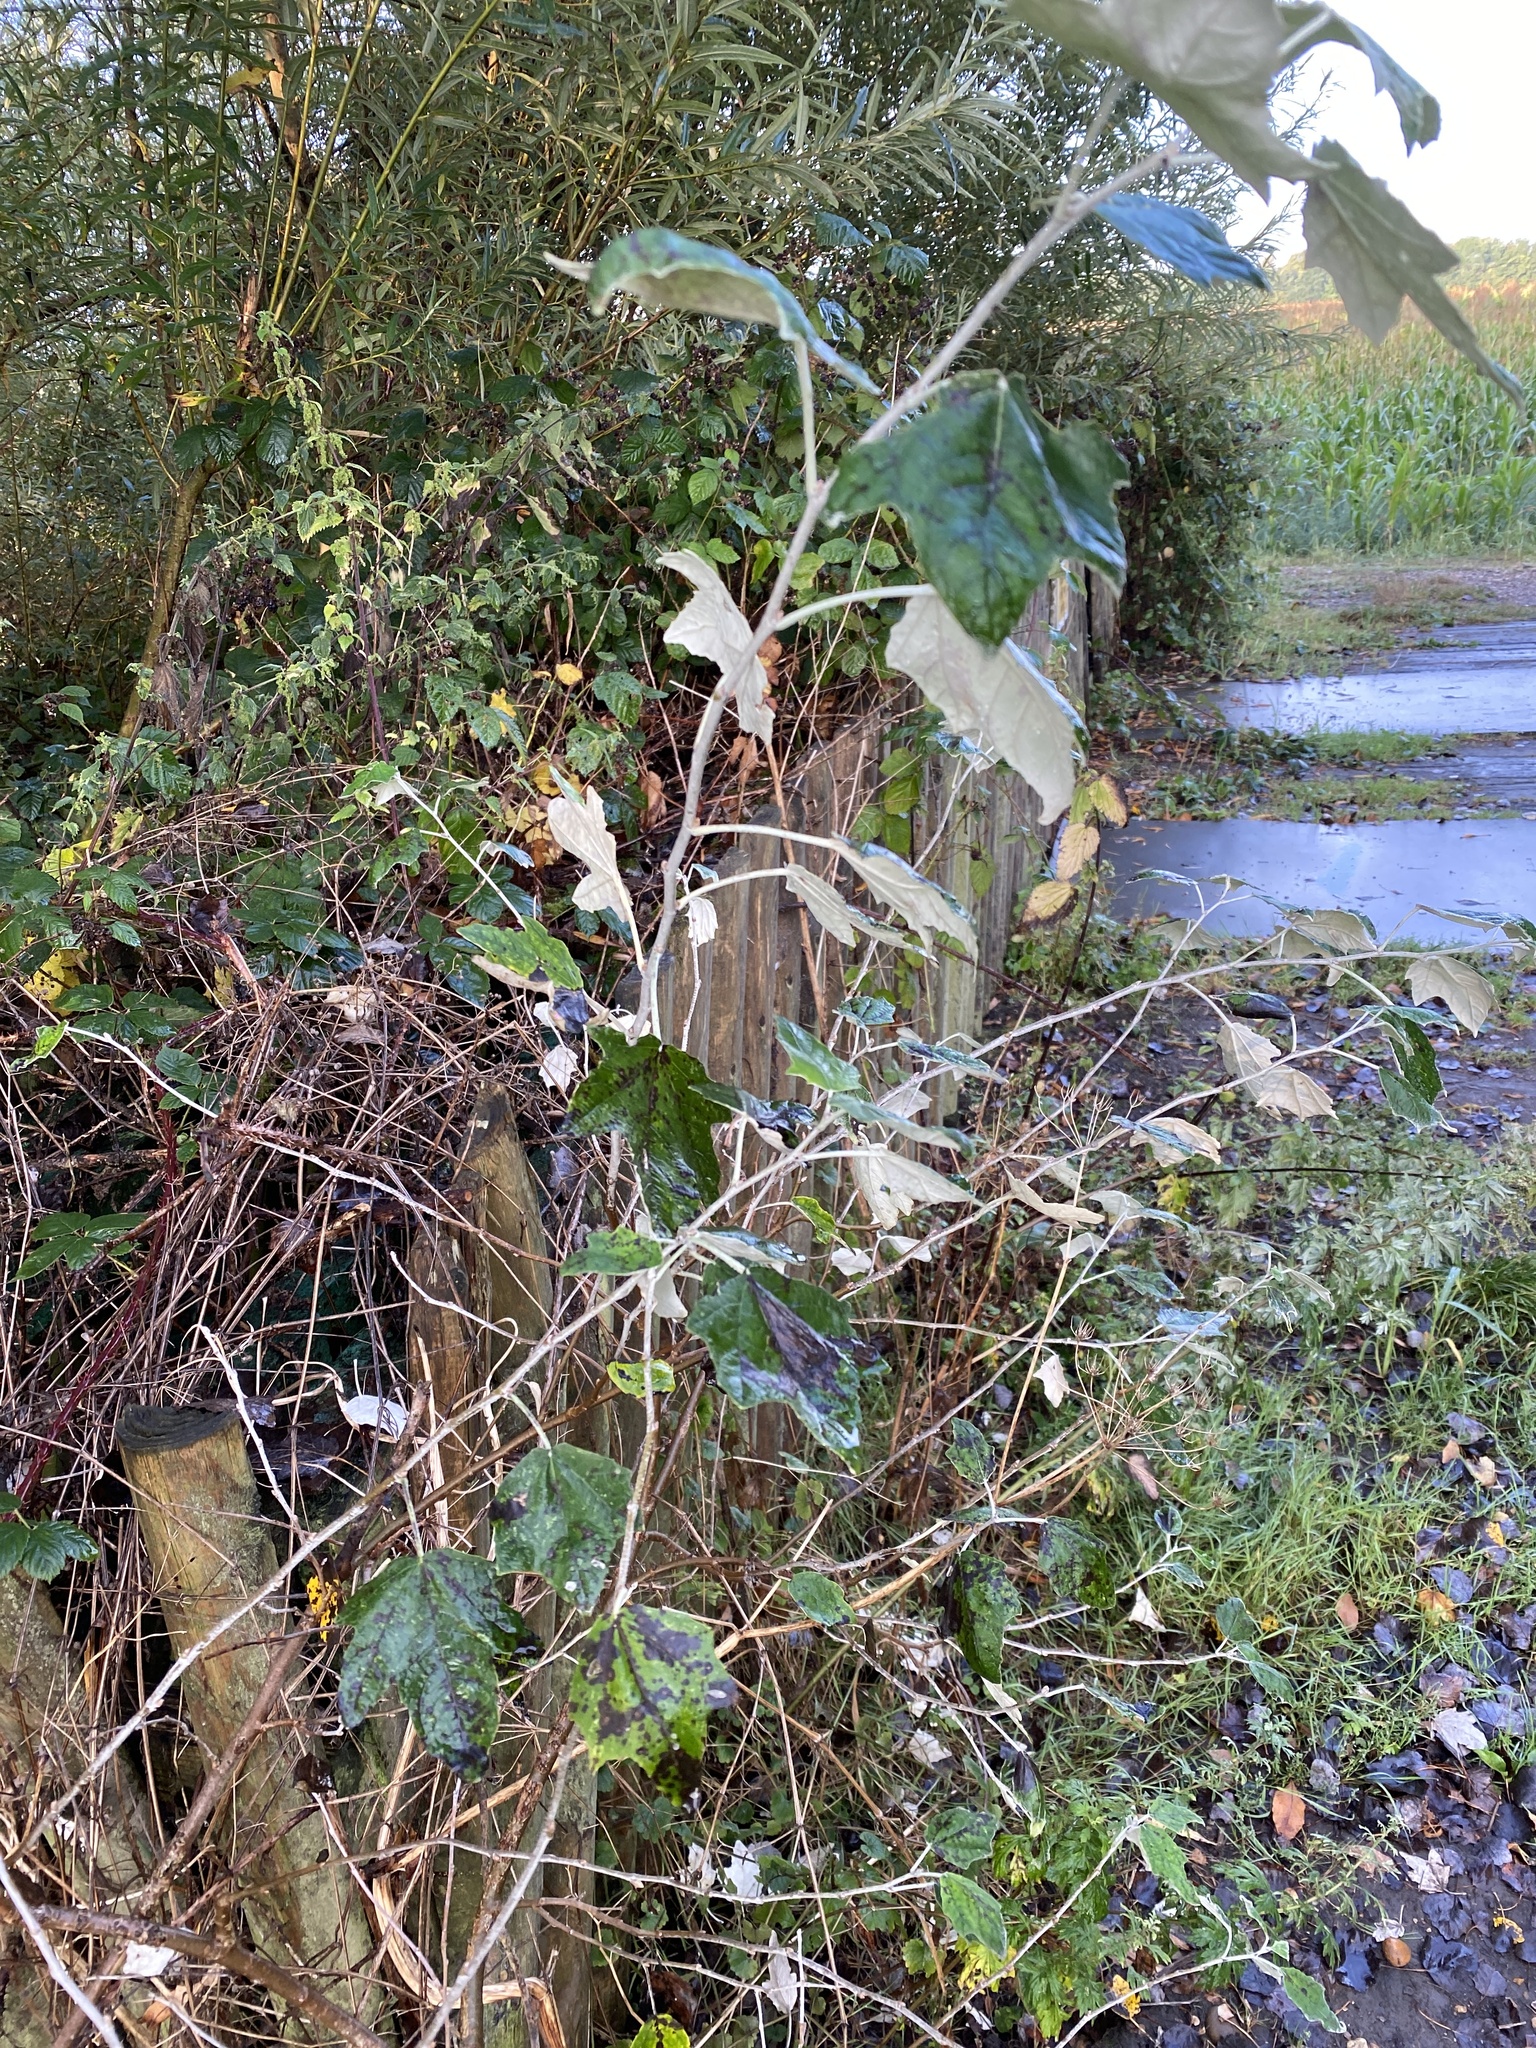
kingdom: Plantae
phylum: Tracheophyta
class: Magnoliopsida
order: Malpighiales
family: Salicaceae
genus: Populus
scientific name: Populus alba
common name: White poplar
